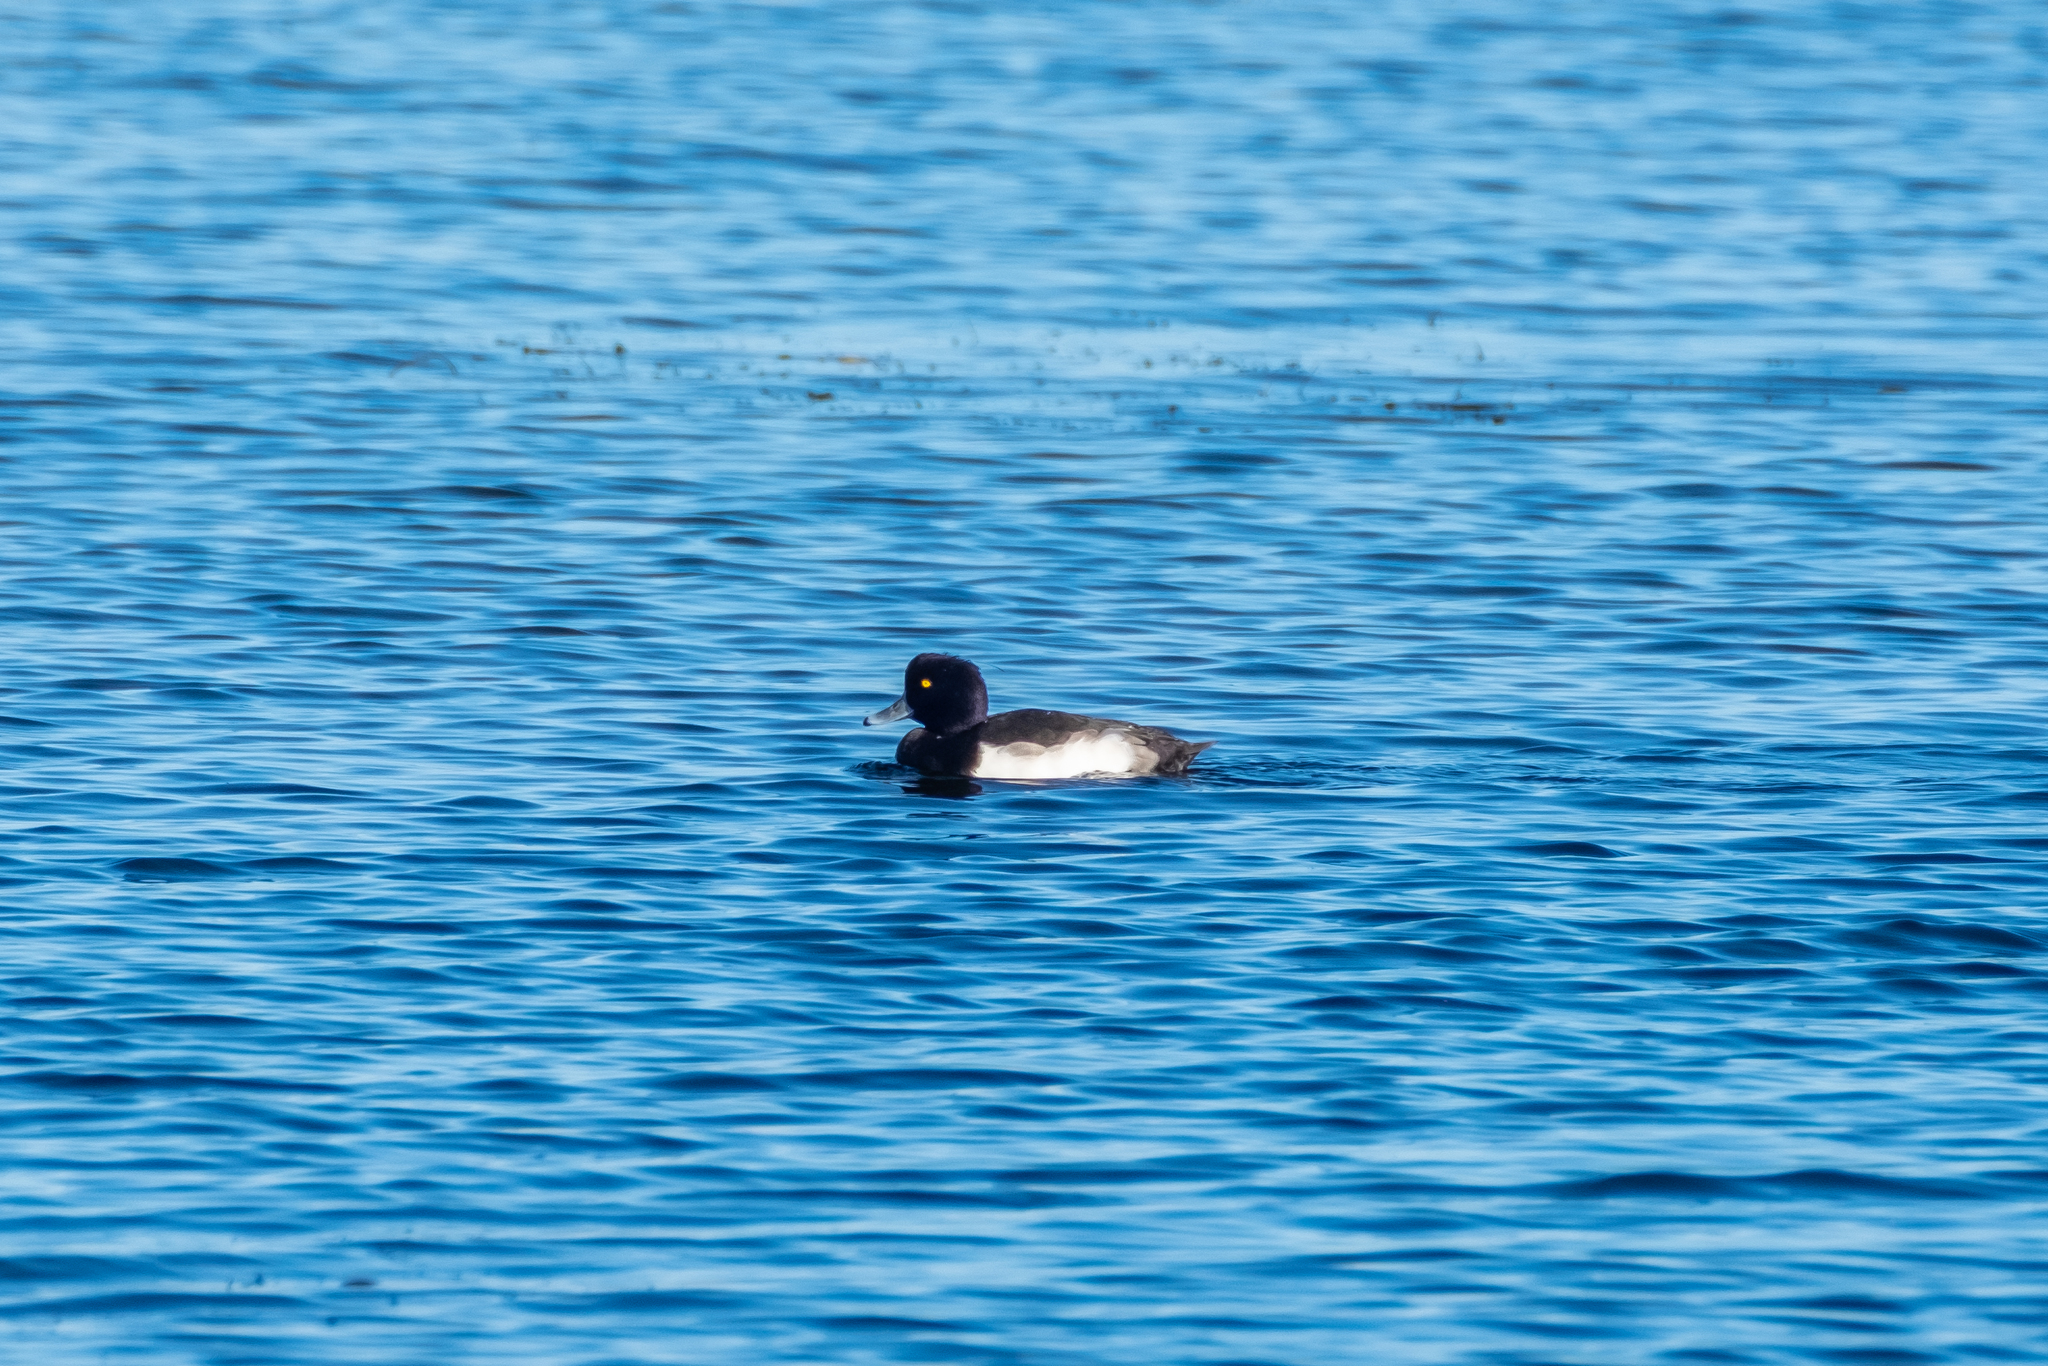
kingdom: Animalia
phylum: Chordata
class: Aves
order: Anseriformes
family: Anatidae
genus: Aythya
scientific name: Aythya fuligula
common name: Tufted duck
